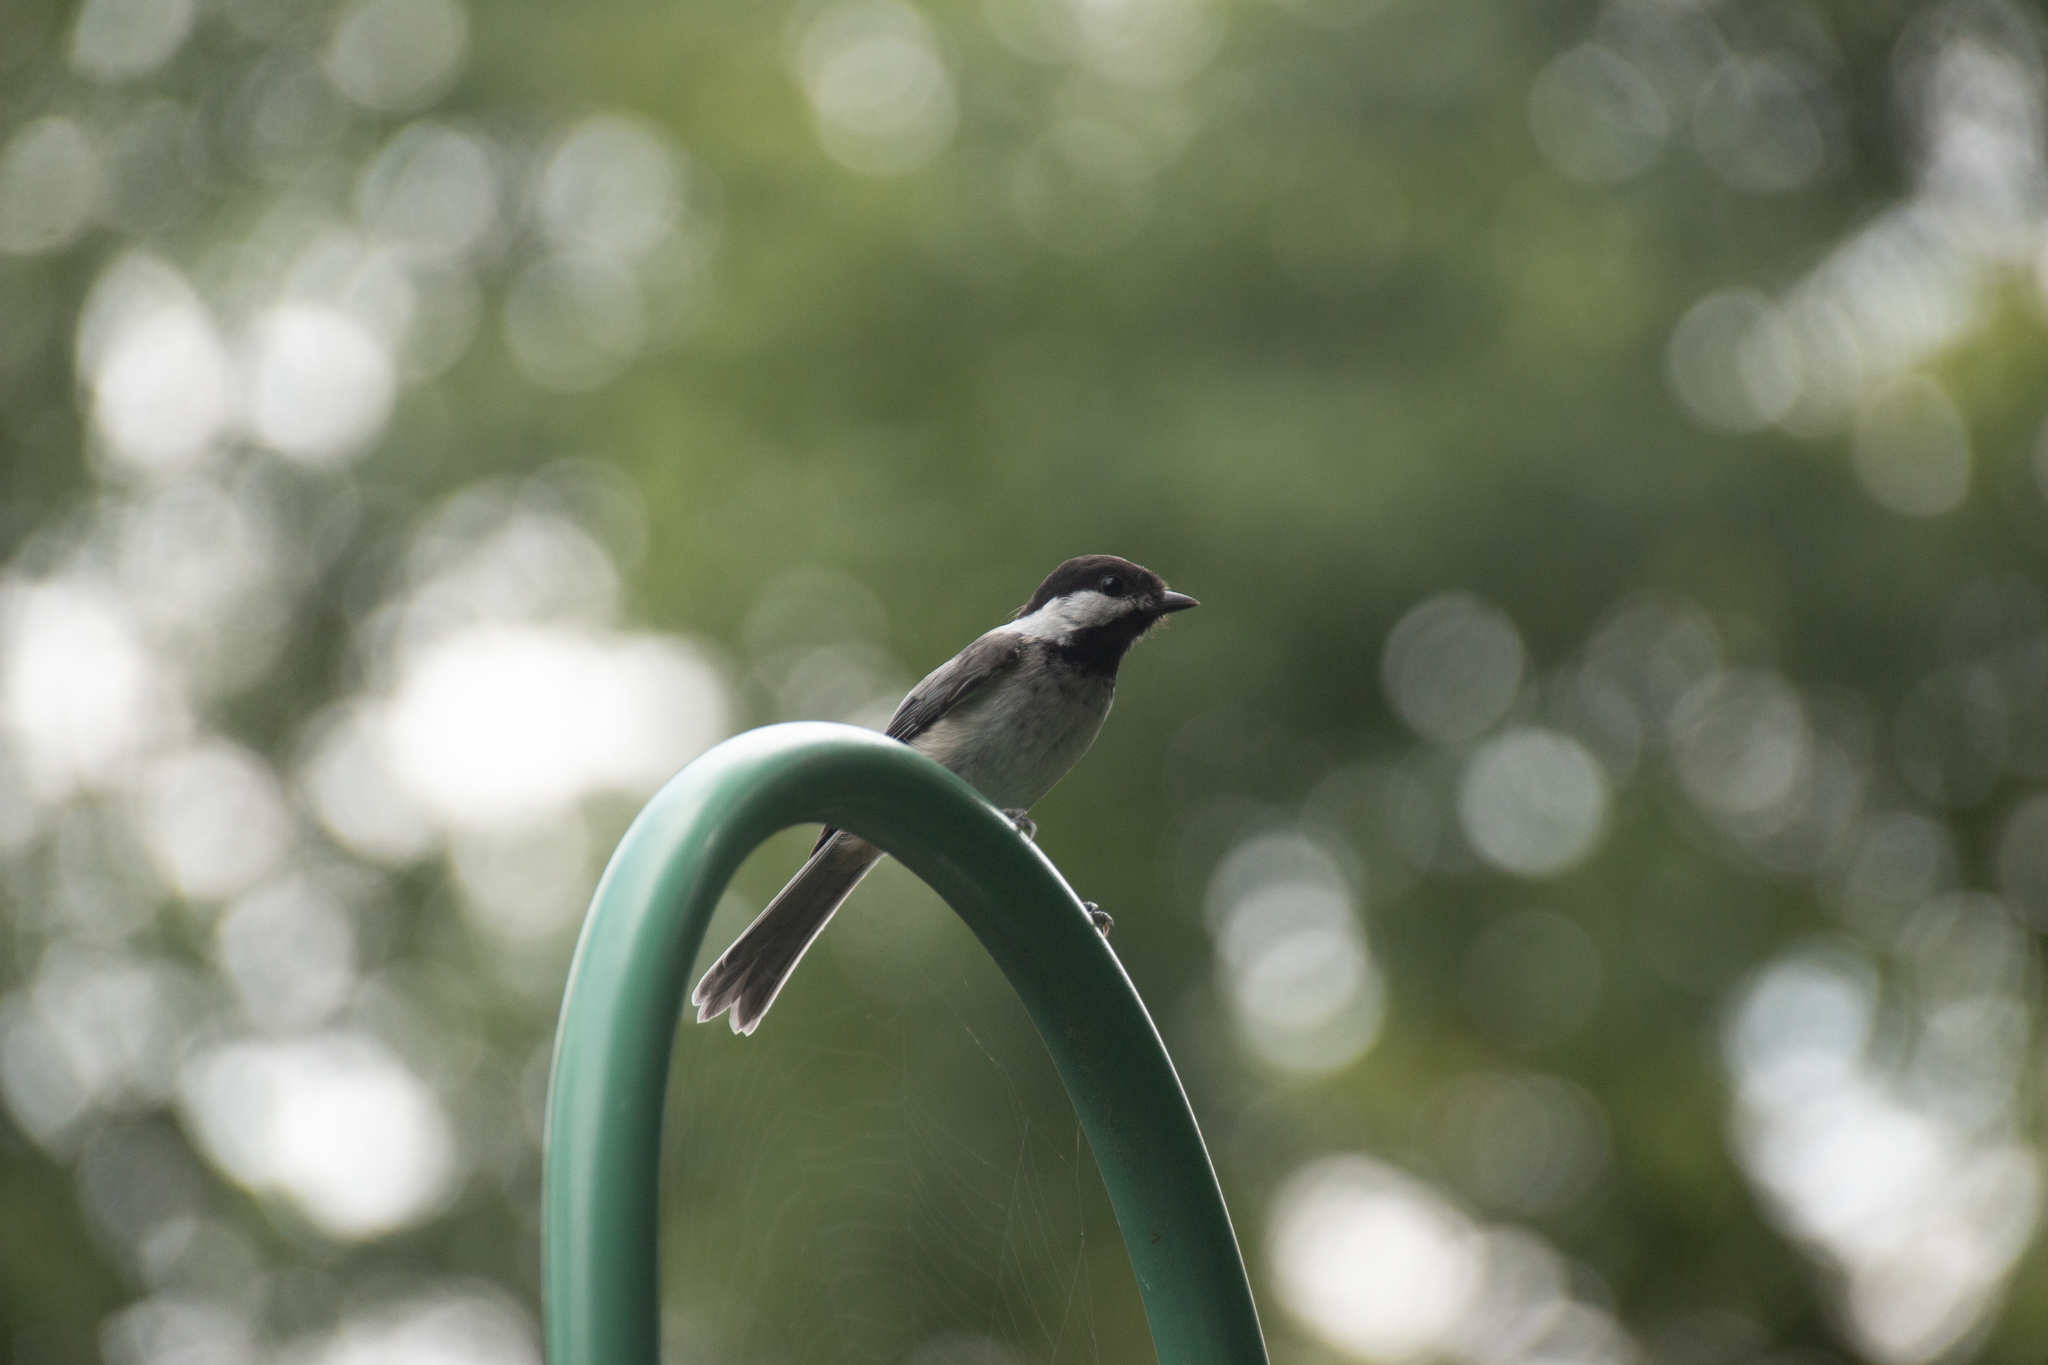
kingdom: Animalia
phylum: Chordata
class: Aves
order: Passeriformes
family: Paridae
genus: Poecile
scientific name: Poecile atricapillus
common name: Black-capped chickadee
